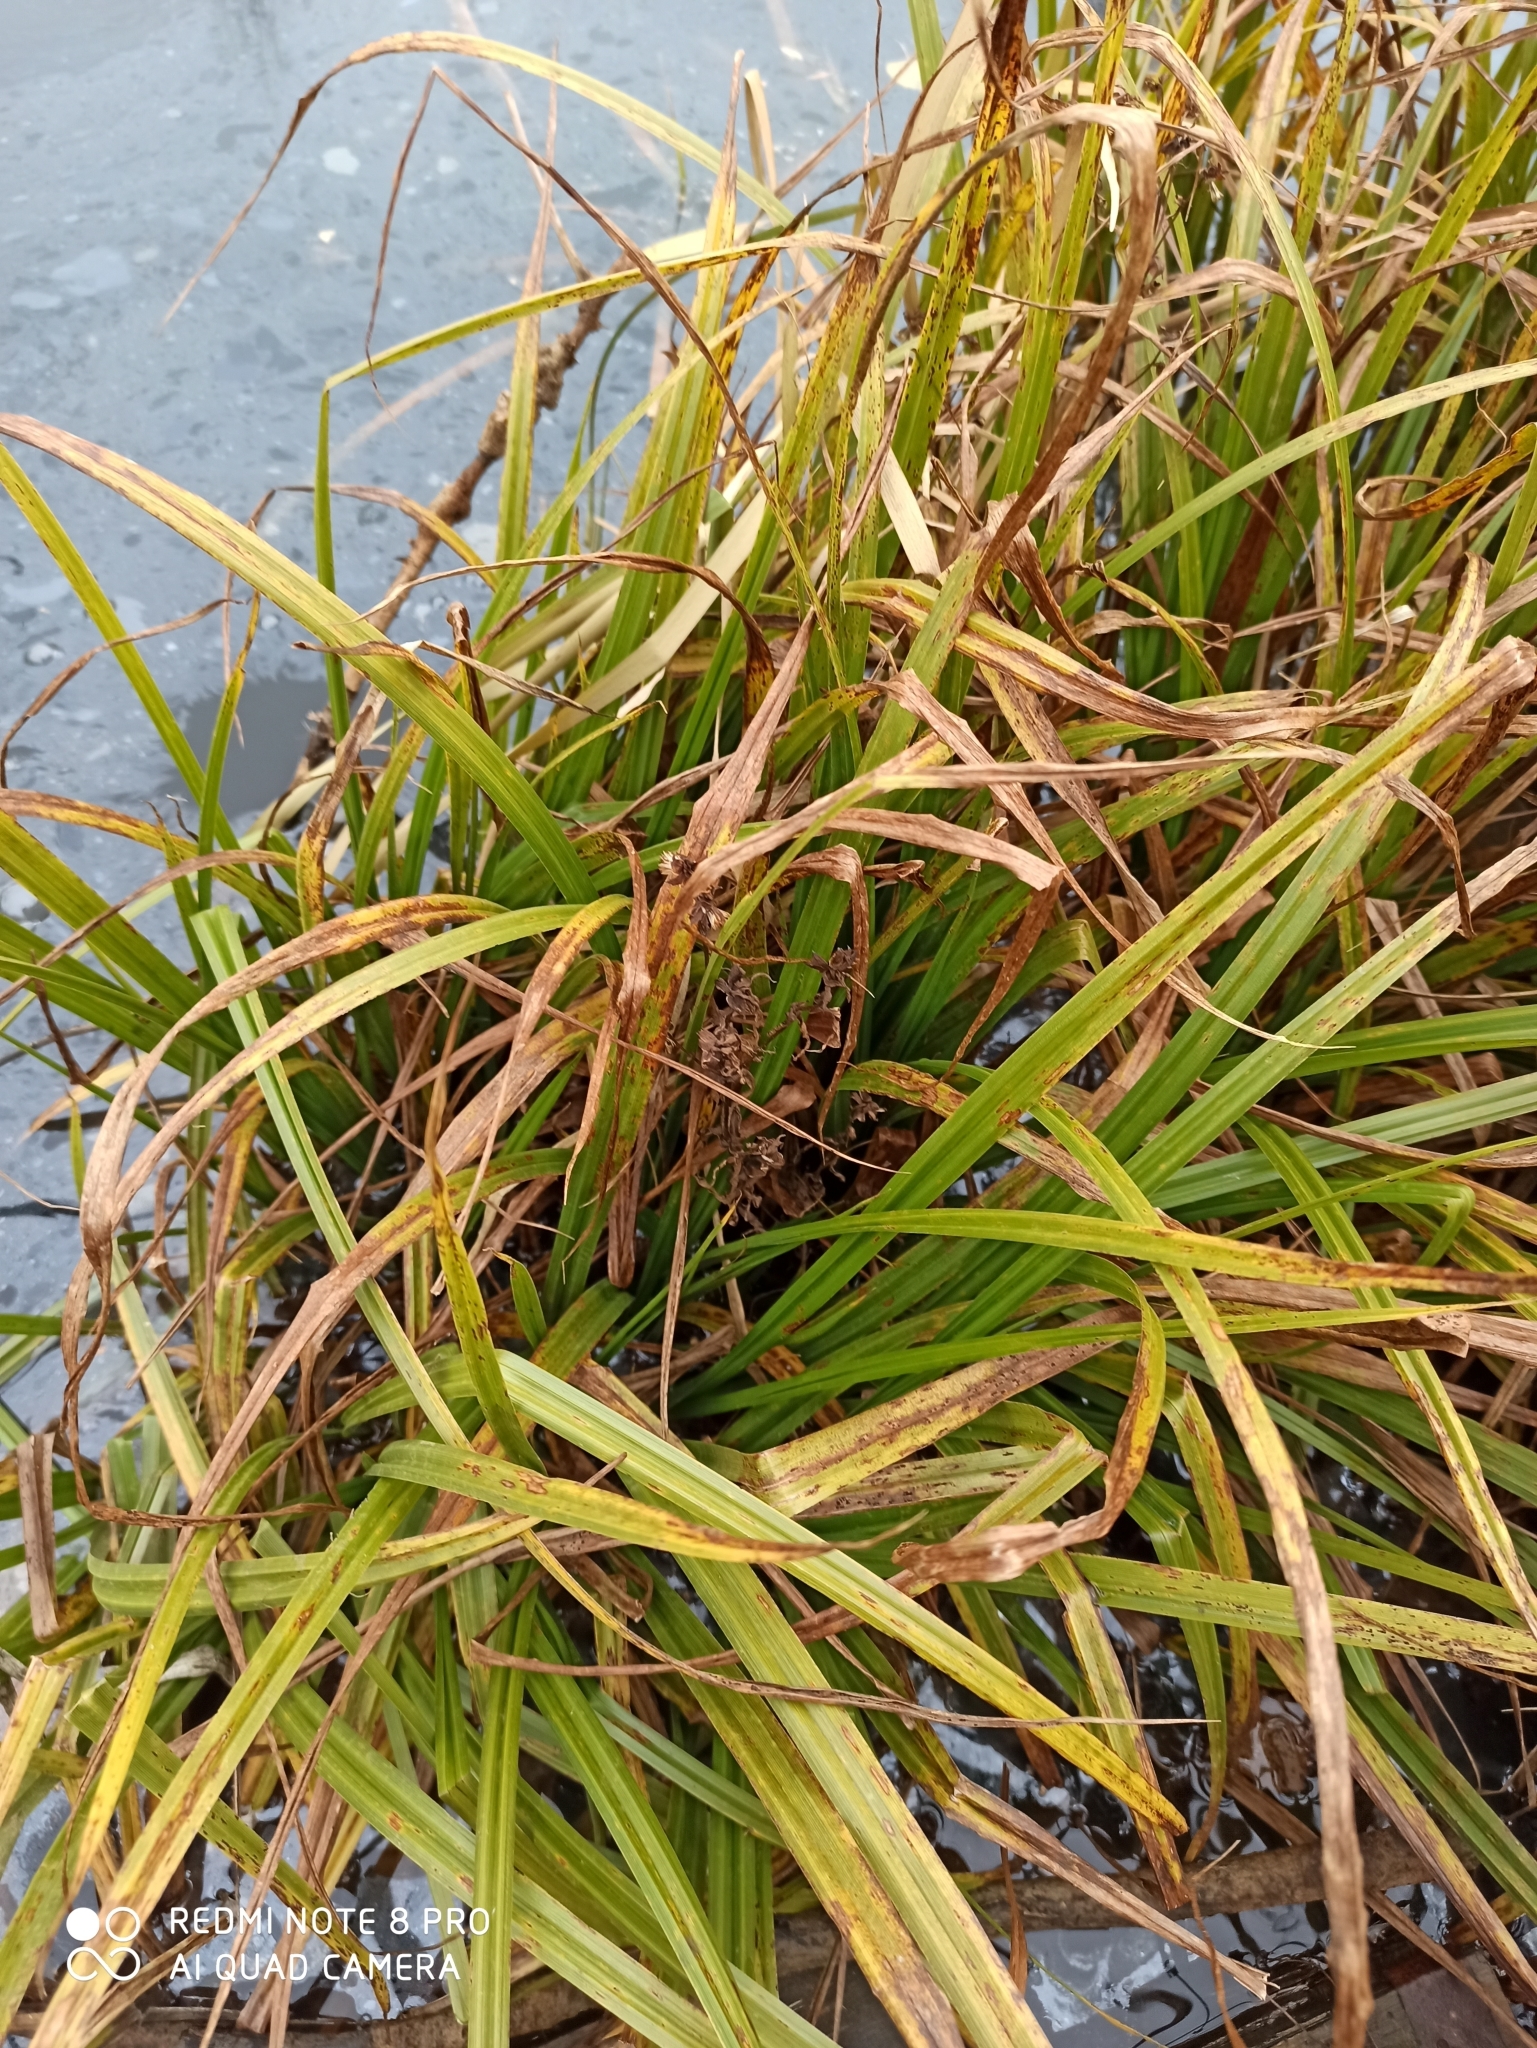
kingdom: Plantae
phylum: Tracheophyta
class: Liliopsida
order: Poales
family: Cyperaceae
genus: Carex
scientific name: Carex pseudocyperus
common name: Cyperus sedge
